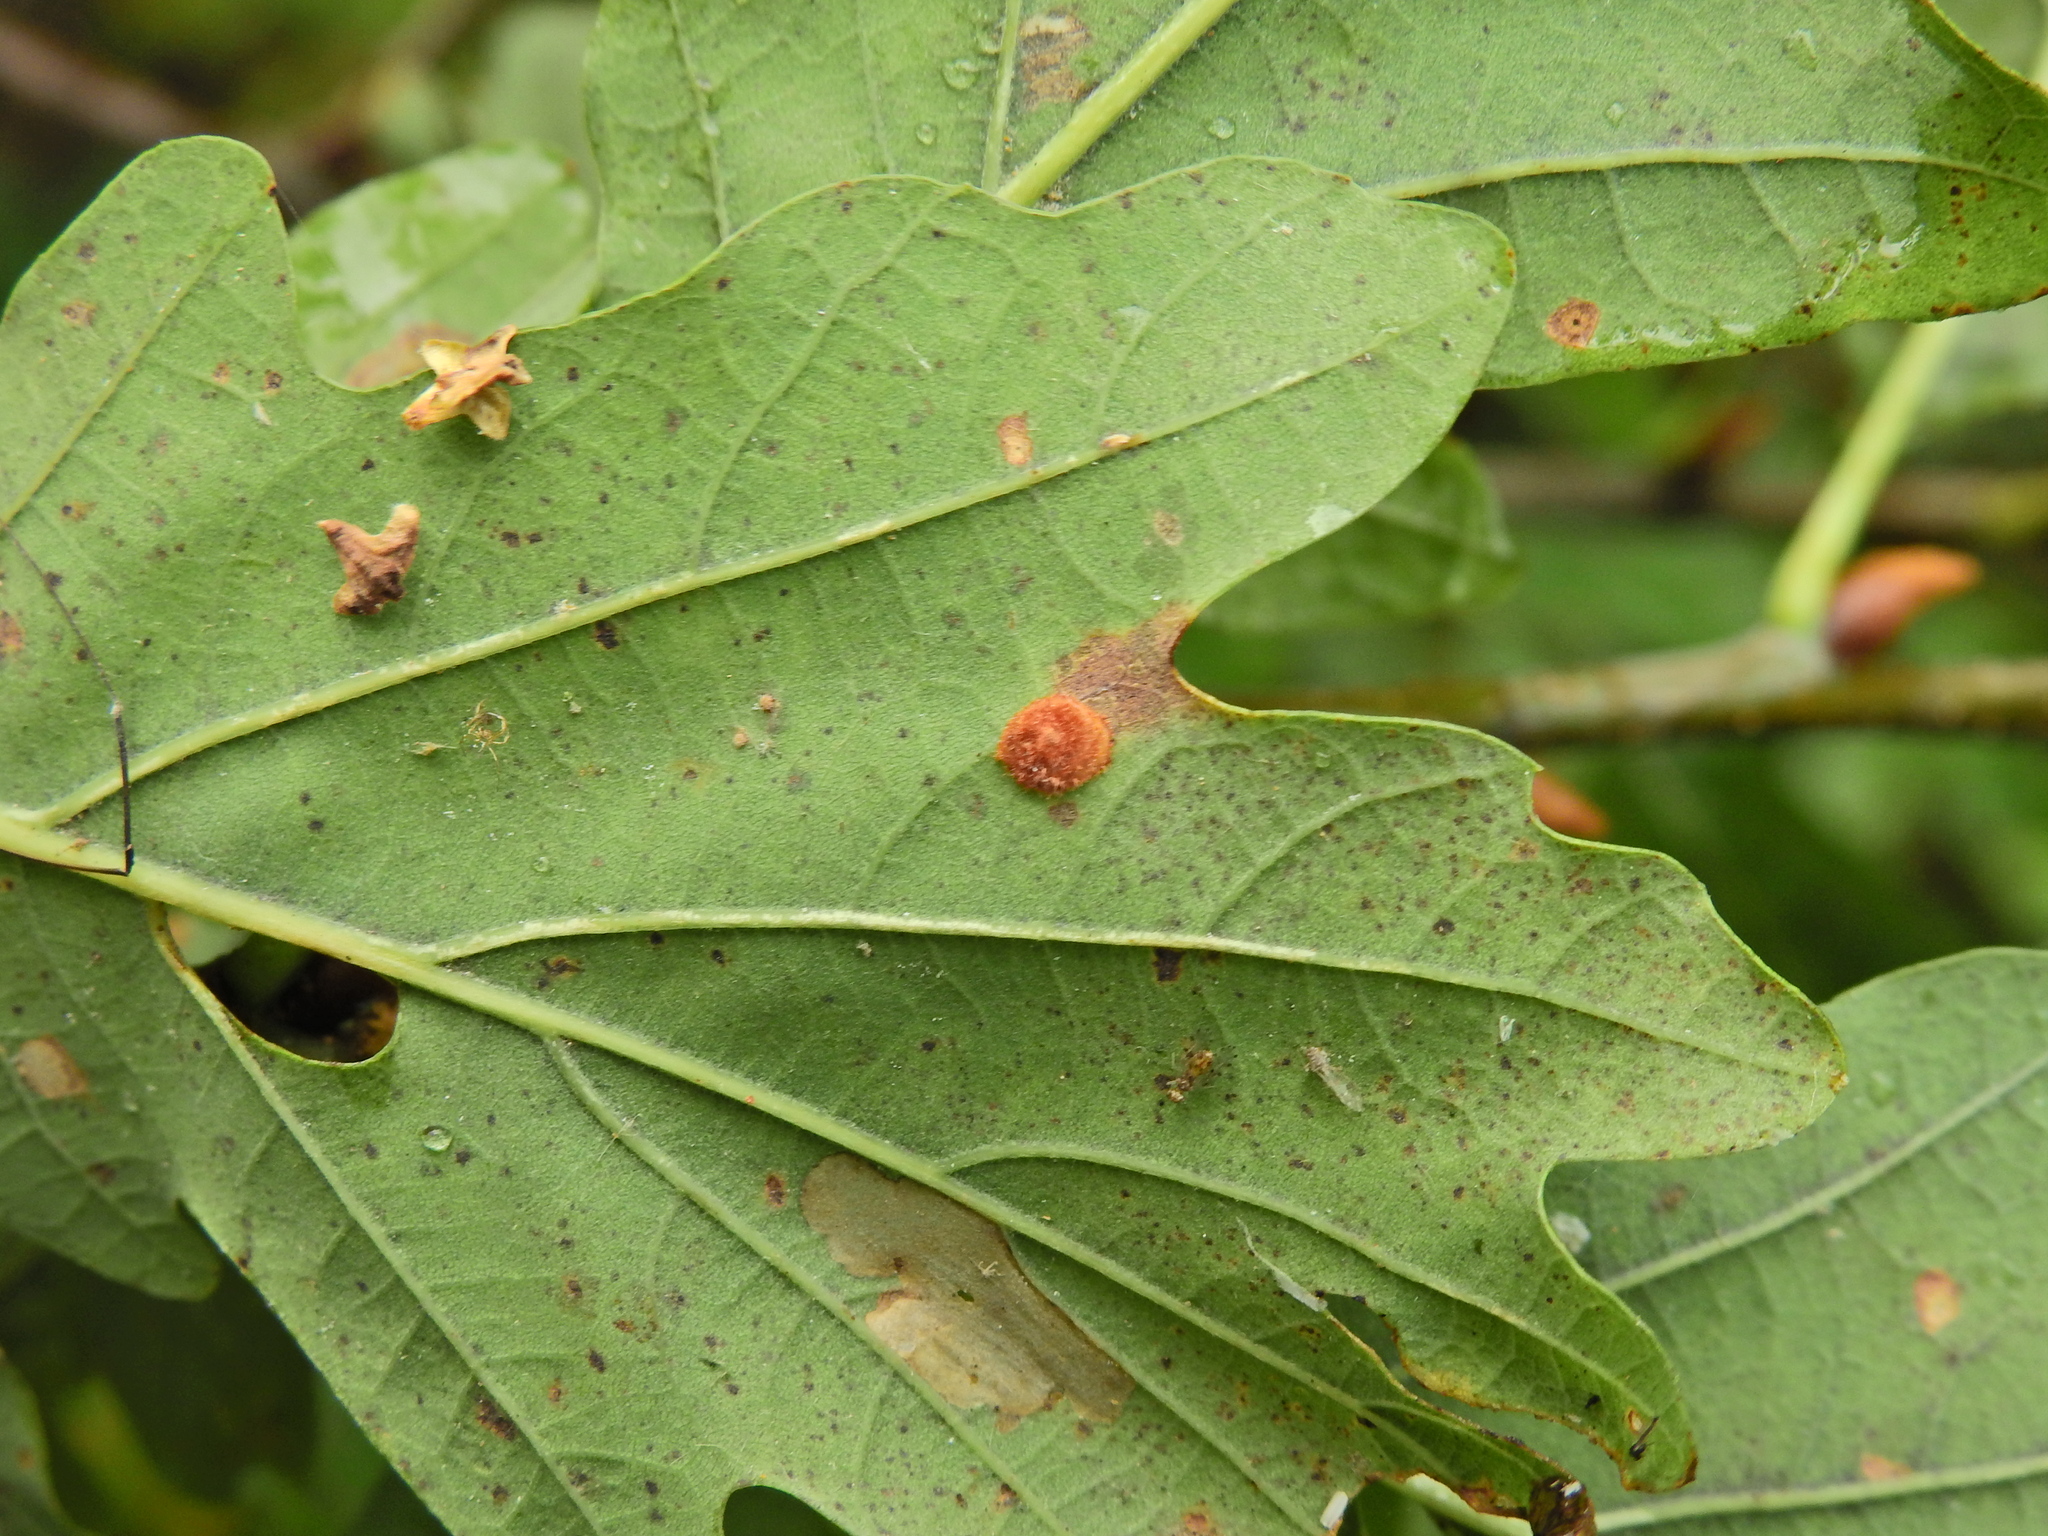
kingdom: Animalia
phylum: Arthropoda
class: Insecta
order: Hymenoptera
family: Cynipidae
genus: Neuroterus
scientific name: Neuroterus quercusbaccarum
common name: Common spangle gall
